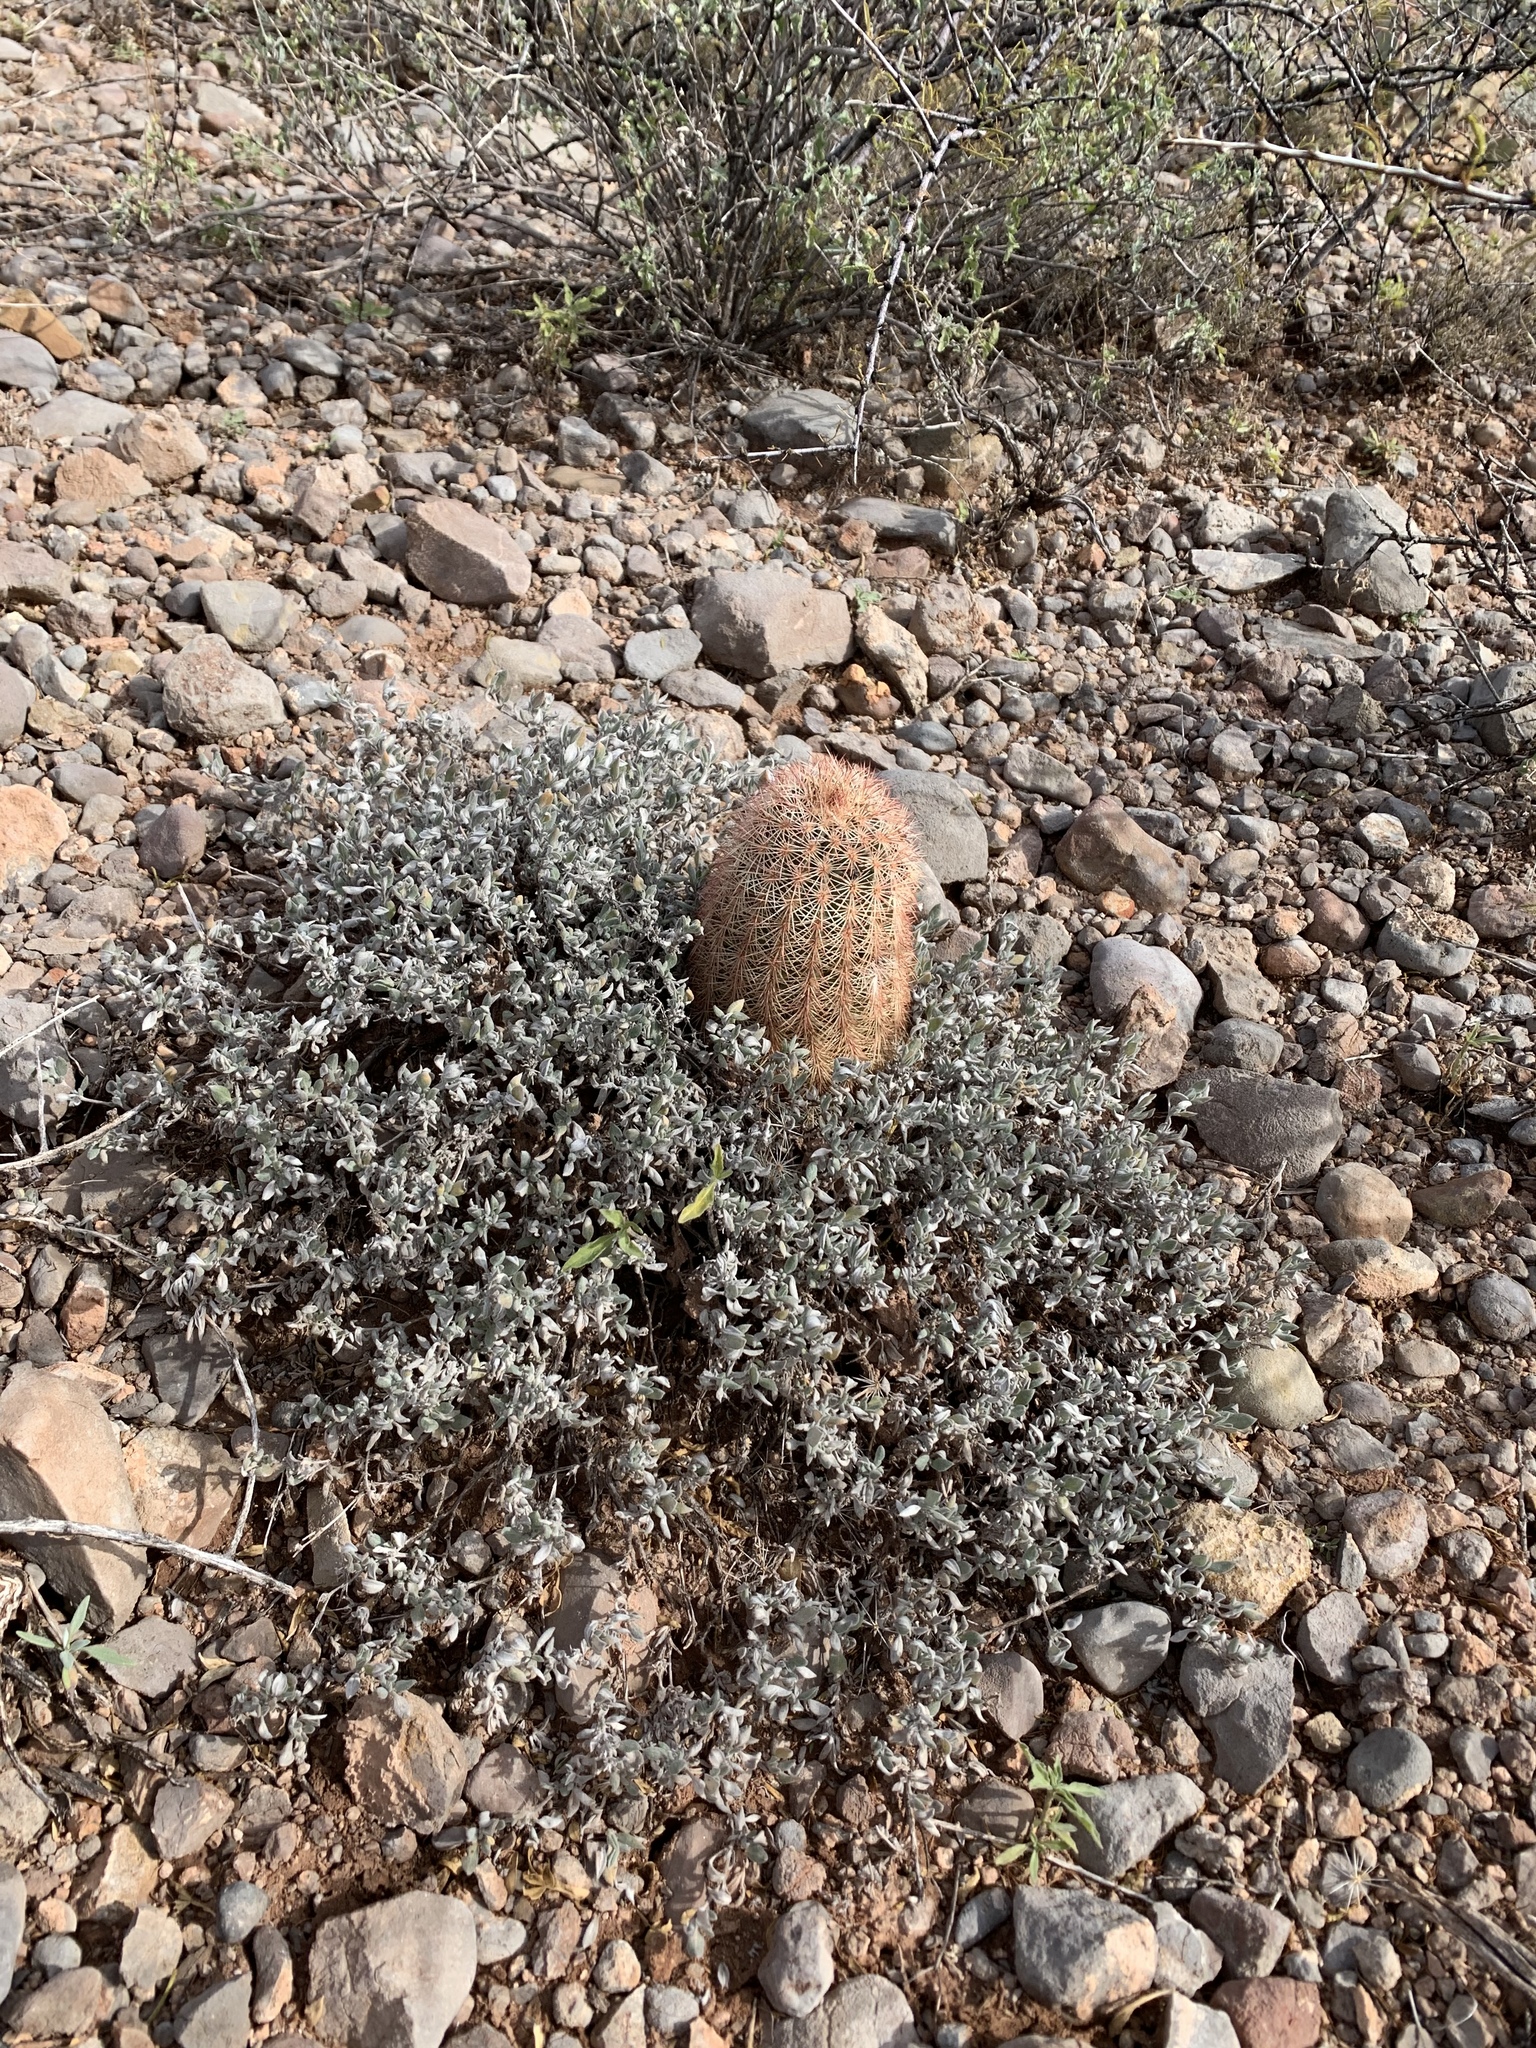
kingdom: Plantae
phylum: Tracheophyta
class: Magnoliopsida
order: Boraginales
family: Ehretiaceae
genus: Tiquilia
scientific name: Tiquilia canescens
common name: Hairy tiquilia
